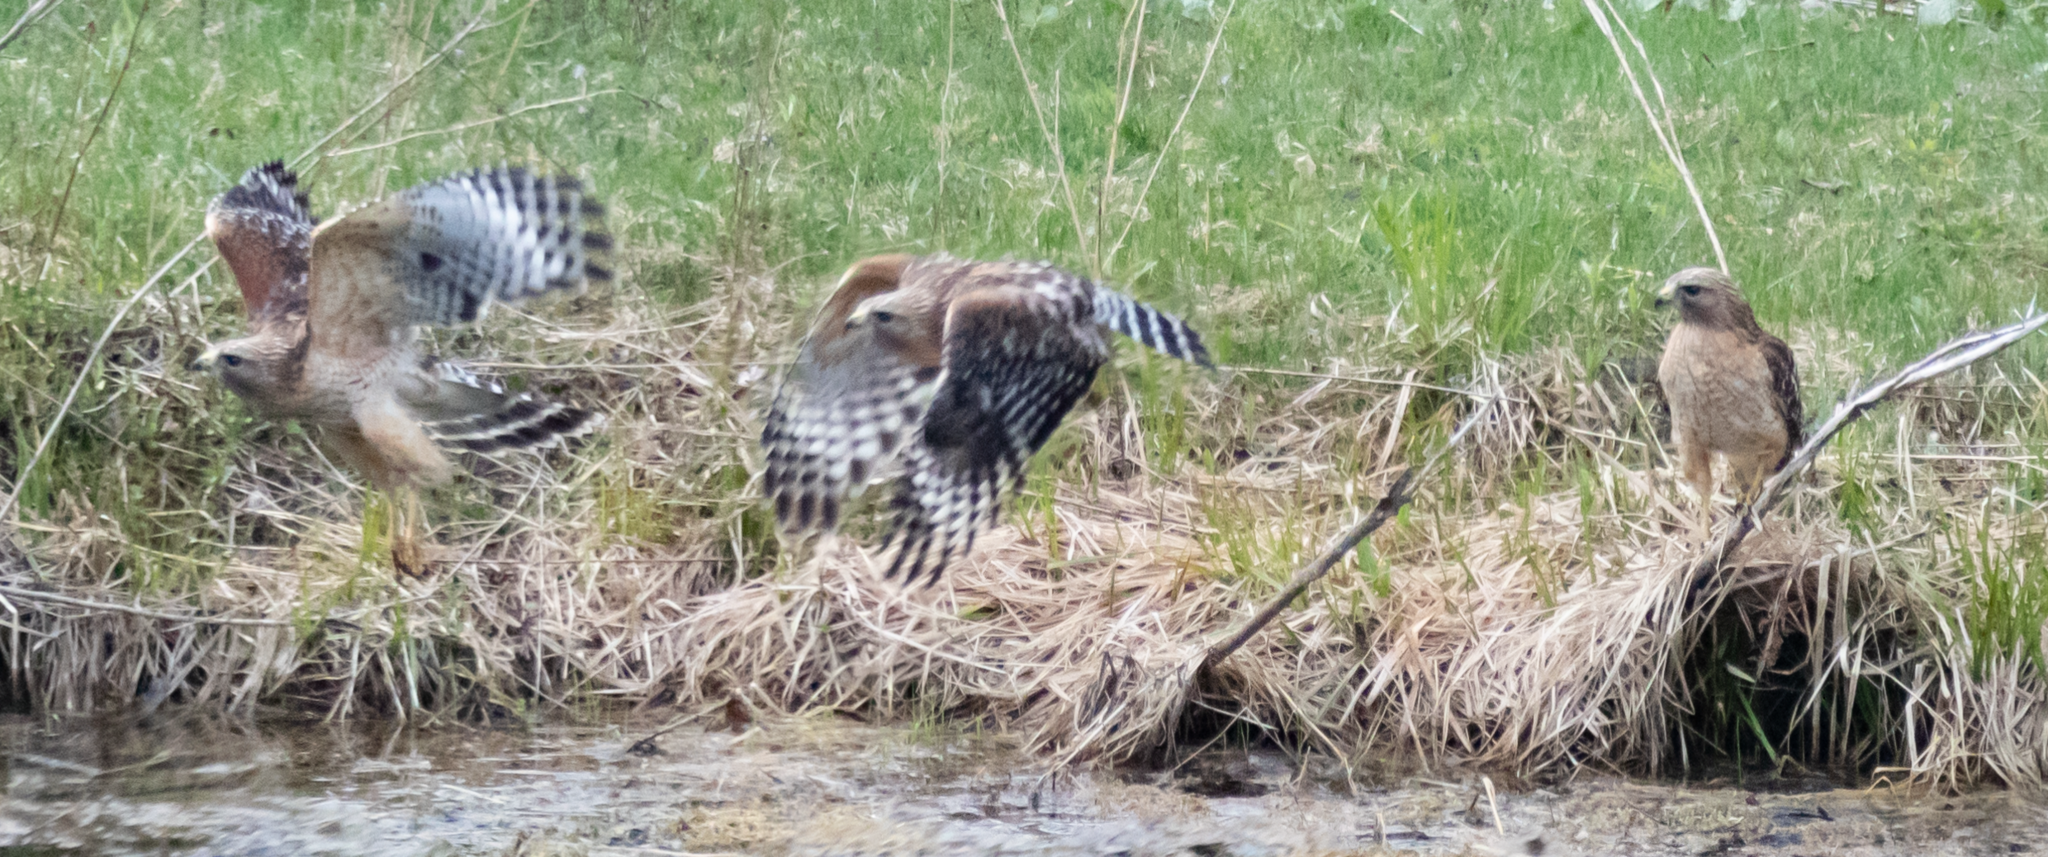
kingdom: Animalia
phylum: Chordata
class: Aves
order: Accipitriformes
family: Accipitridae
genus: Buteo
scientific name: Buteo lineatus
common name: Red-shouldered hawk
